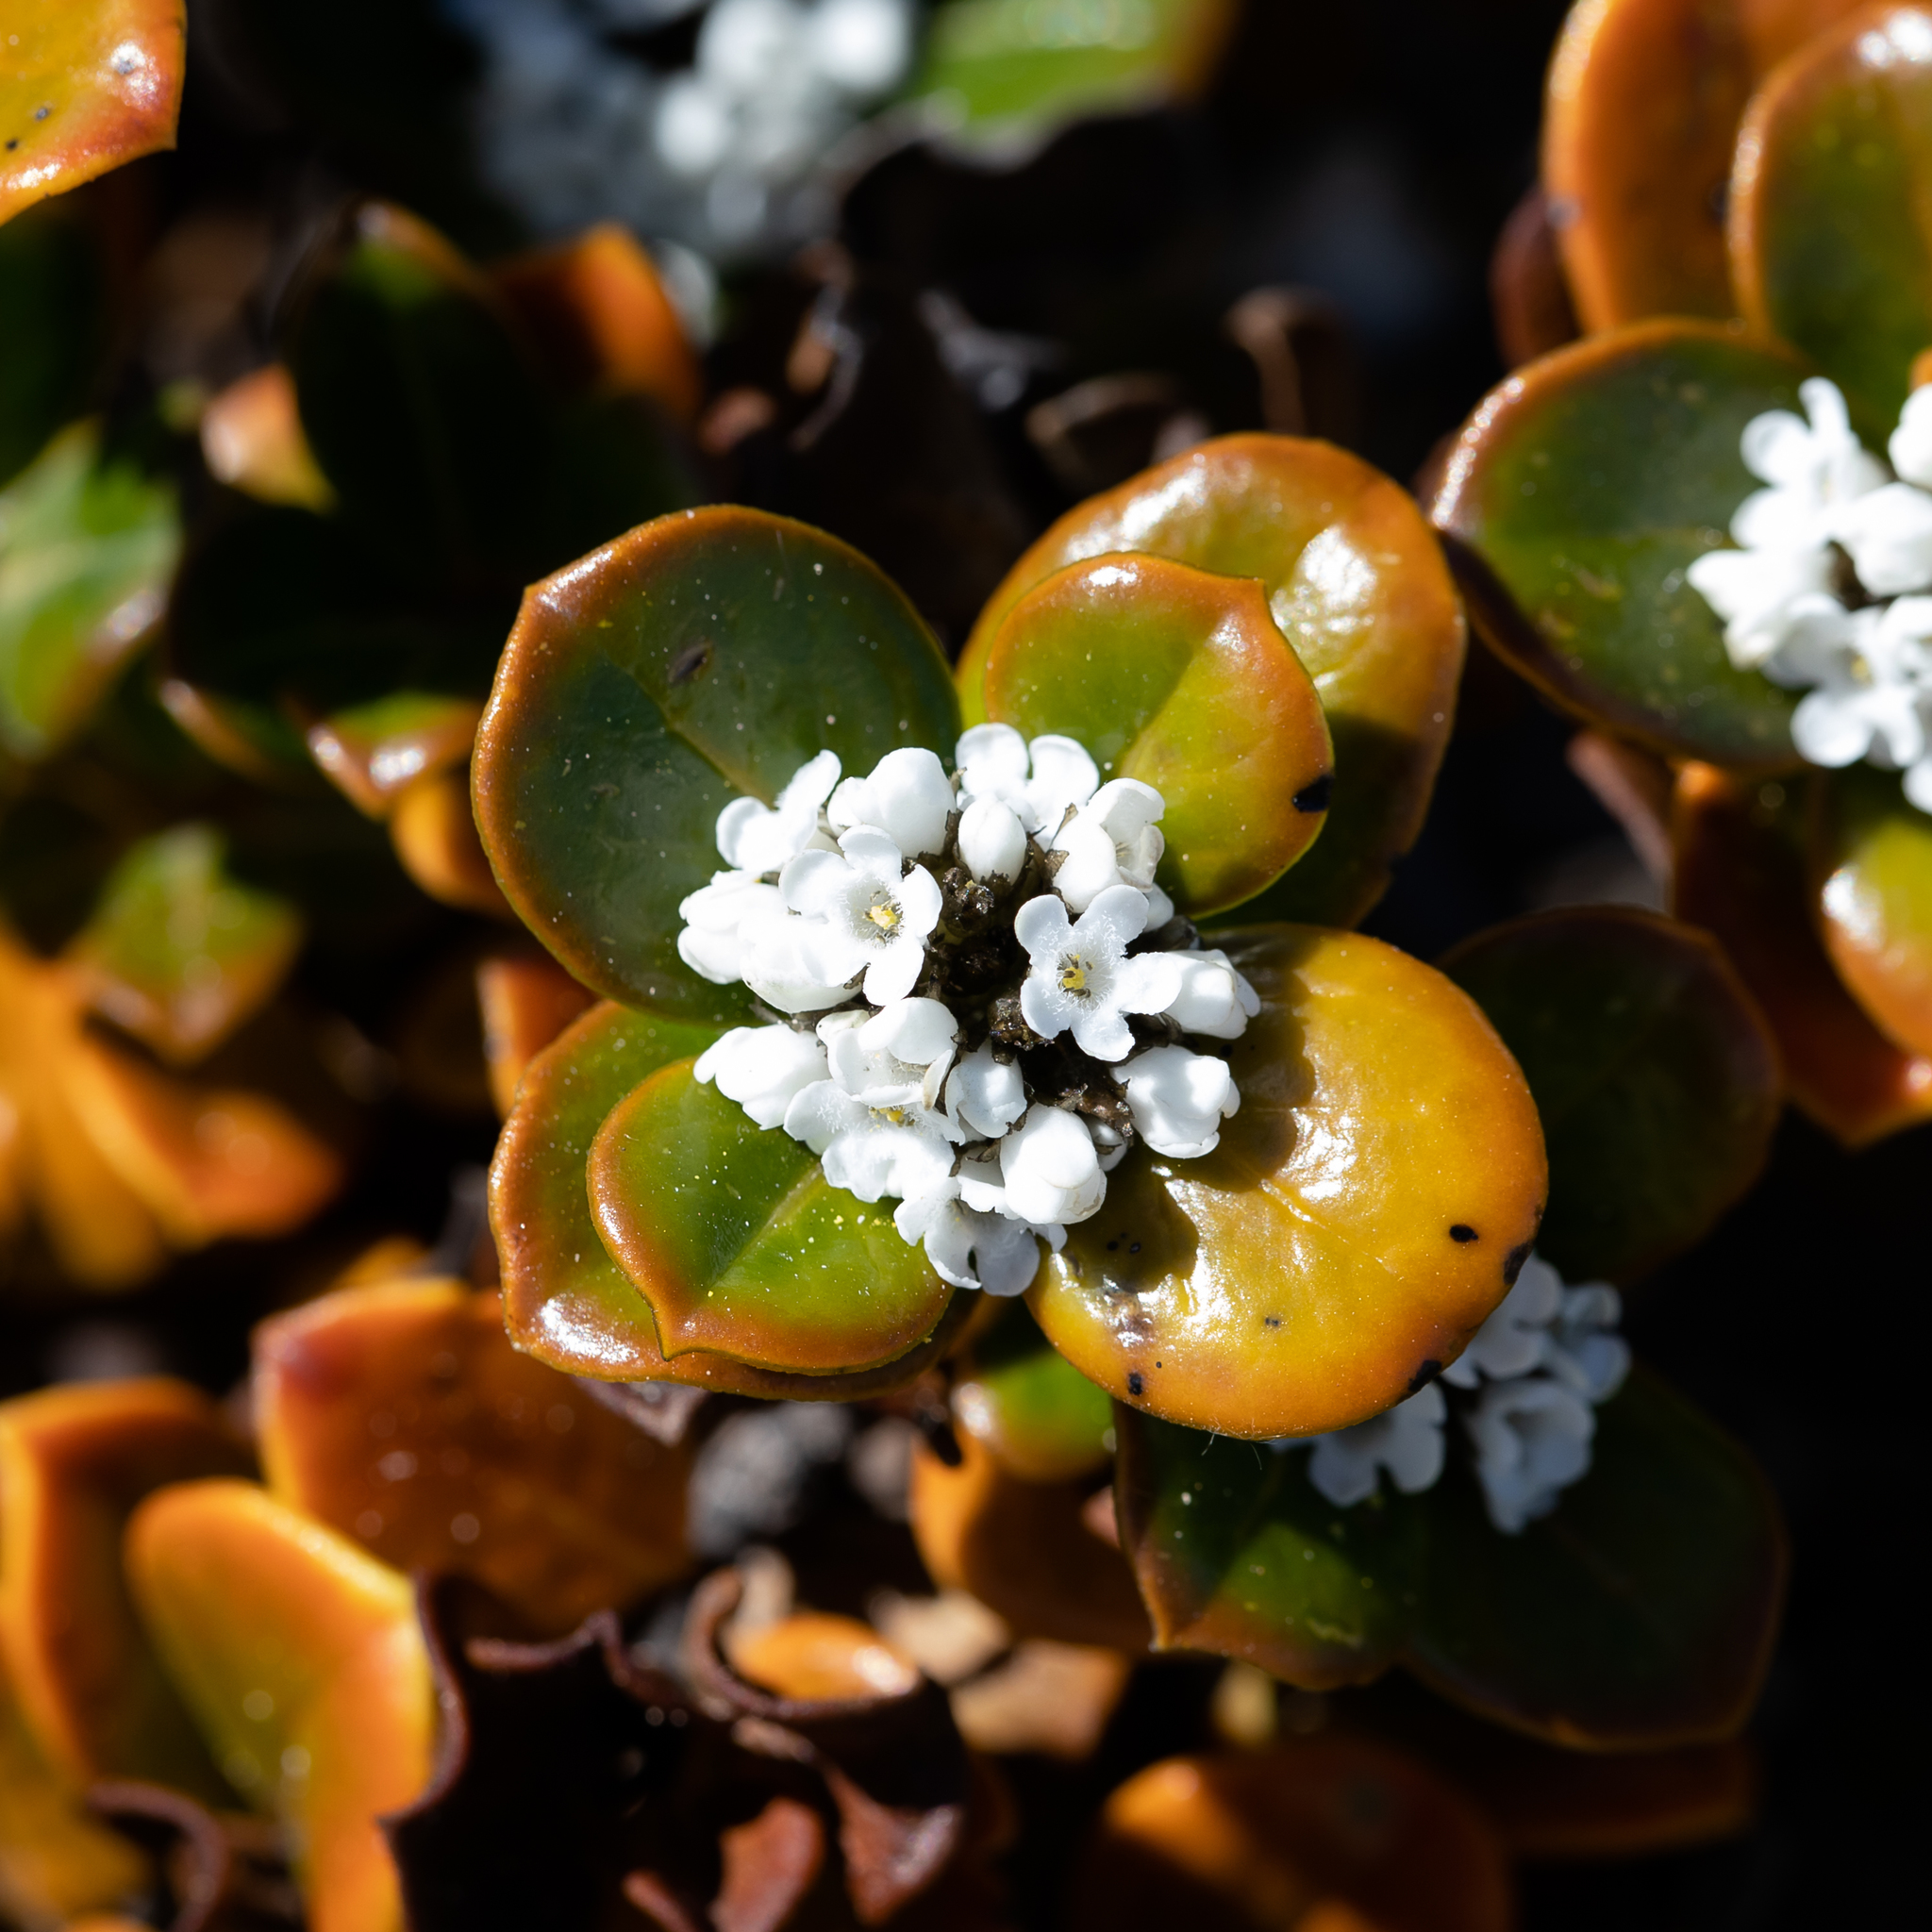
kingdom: Plantae
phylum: Tracheophyta
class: Magnoliopsida
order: Gentianales
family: Loganiaceae
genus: Logania
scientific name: Logania crassifolia
